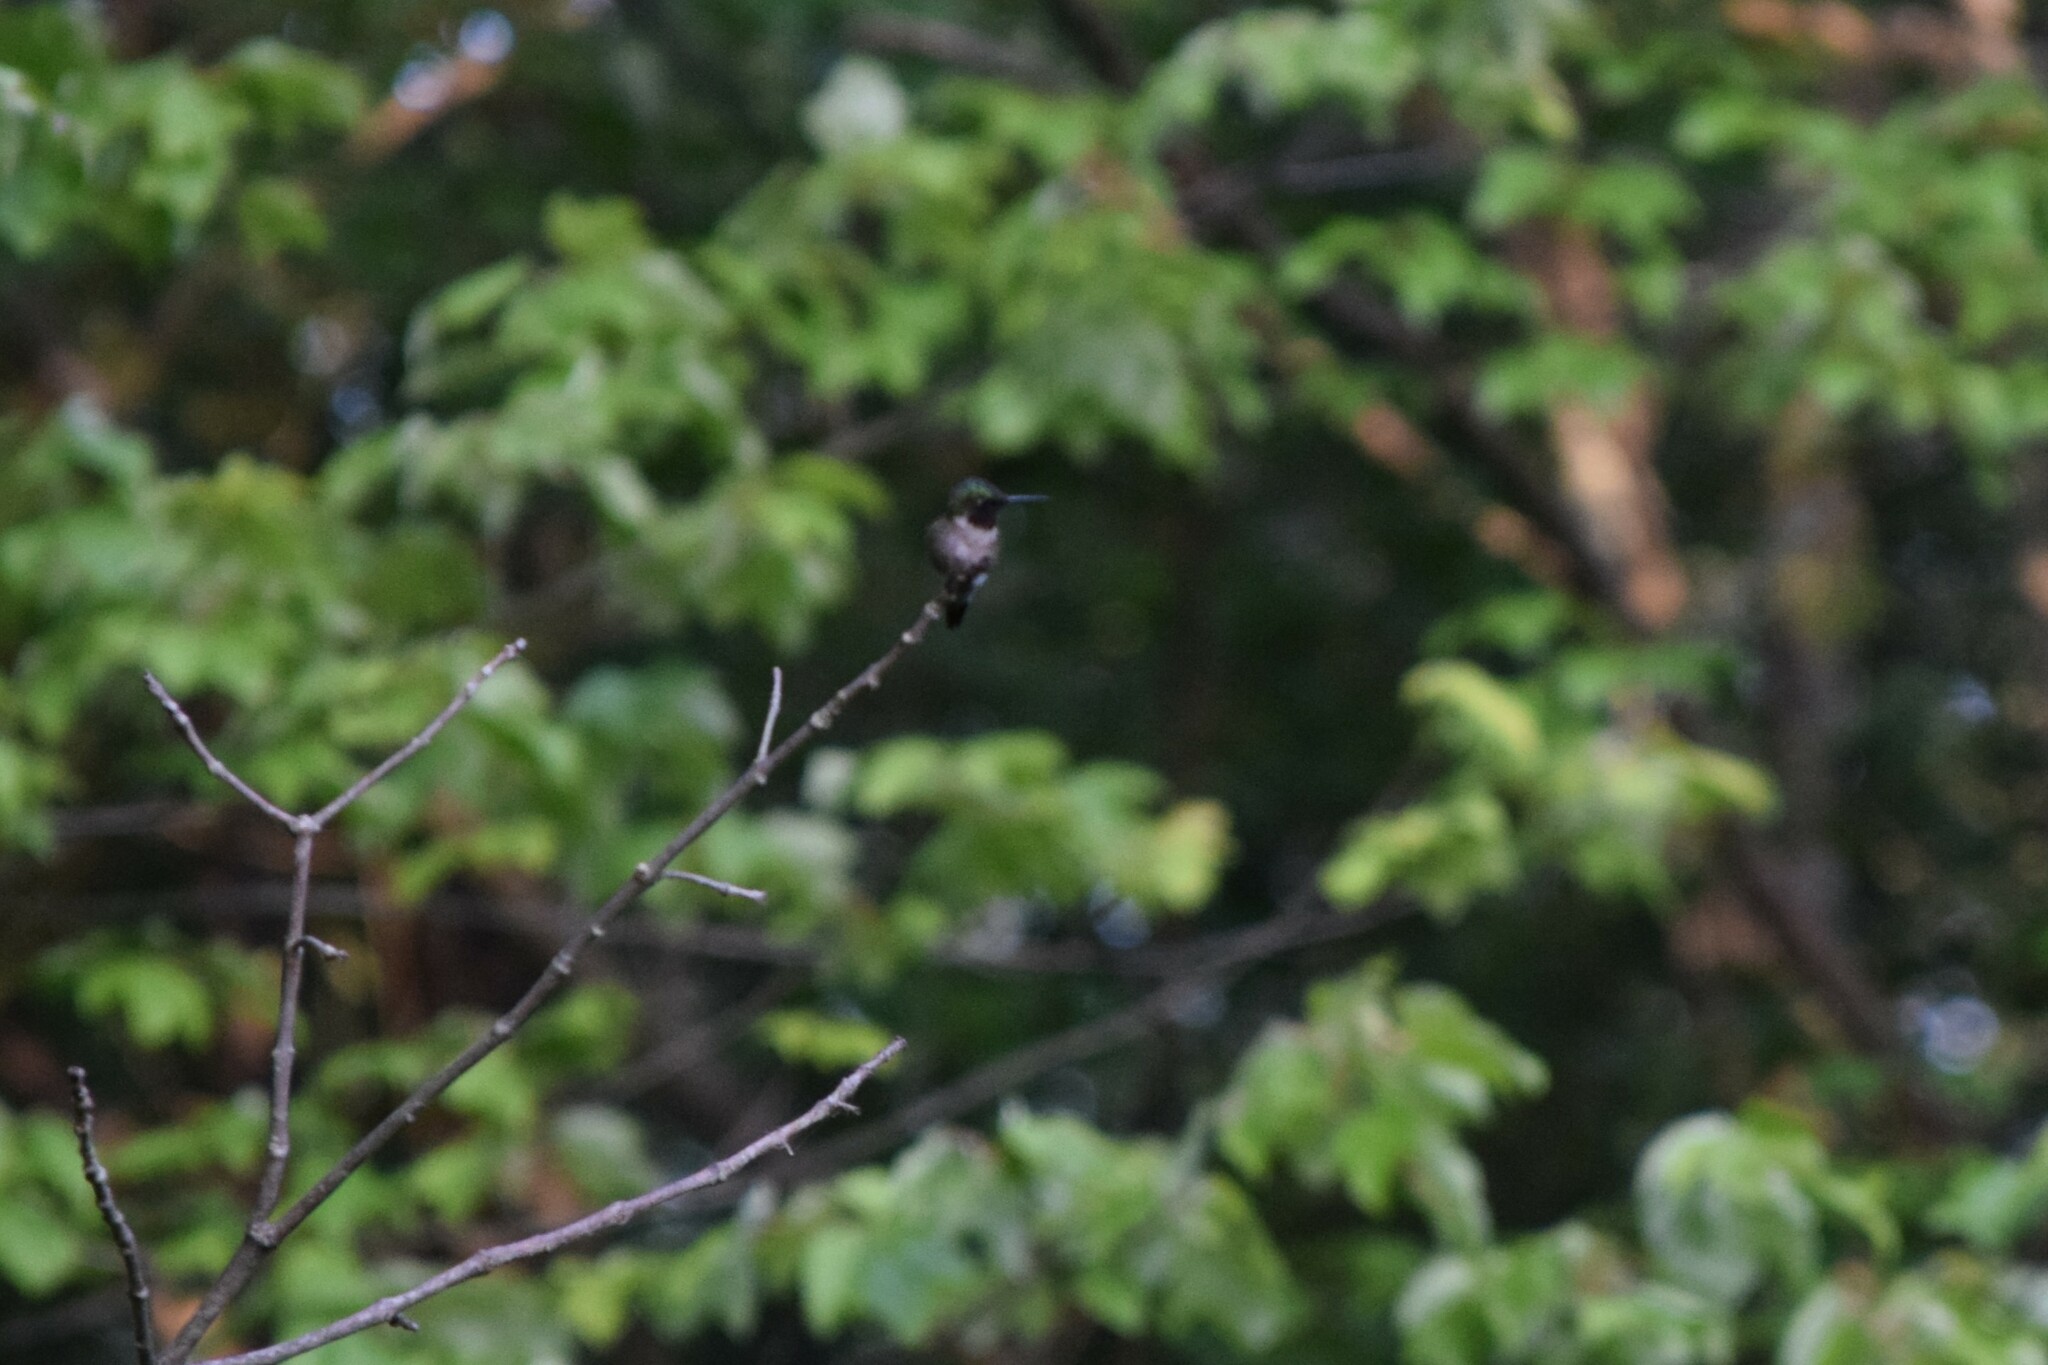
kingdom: Animalia
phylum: Chordata
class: Aves
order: Apodiformes
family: Trochilidae
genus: Archilochus
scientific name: Archilochus colubris
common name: Ruby-throated hummingbird
